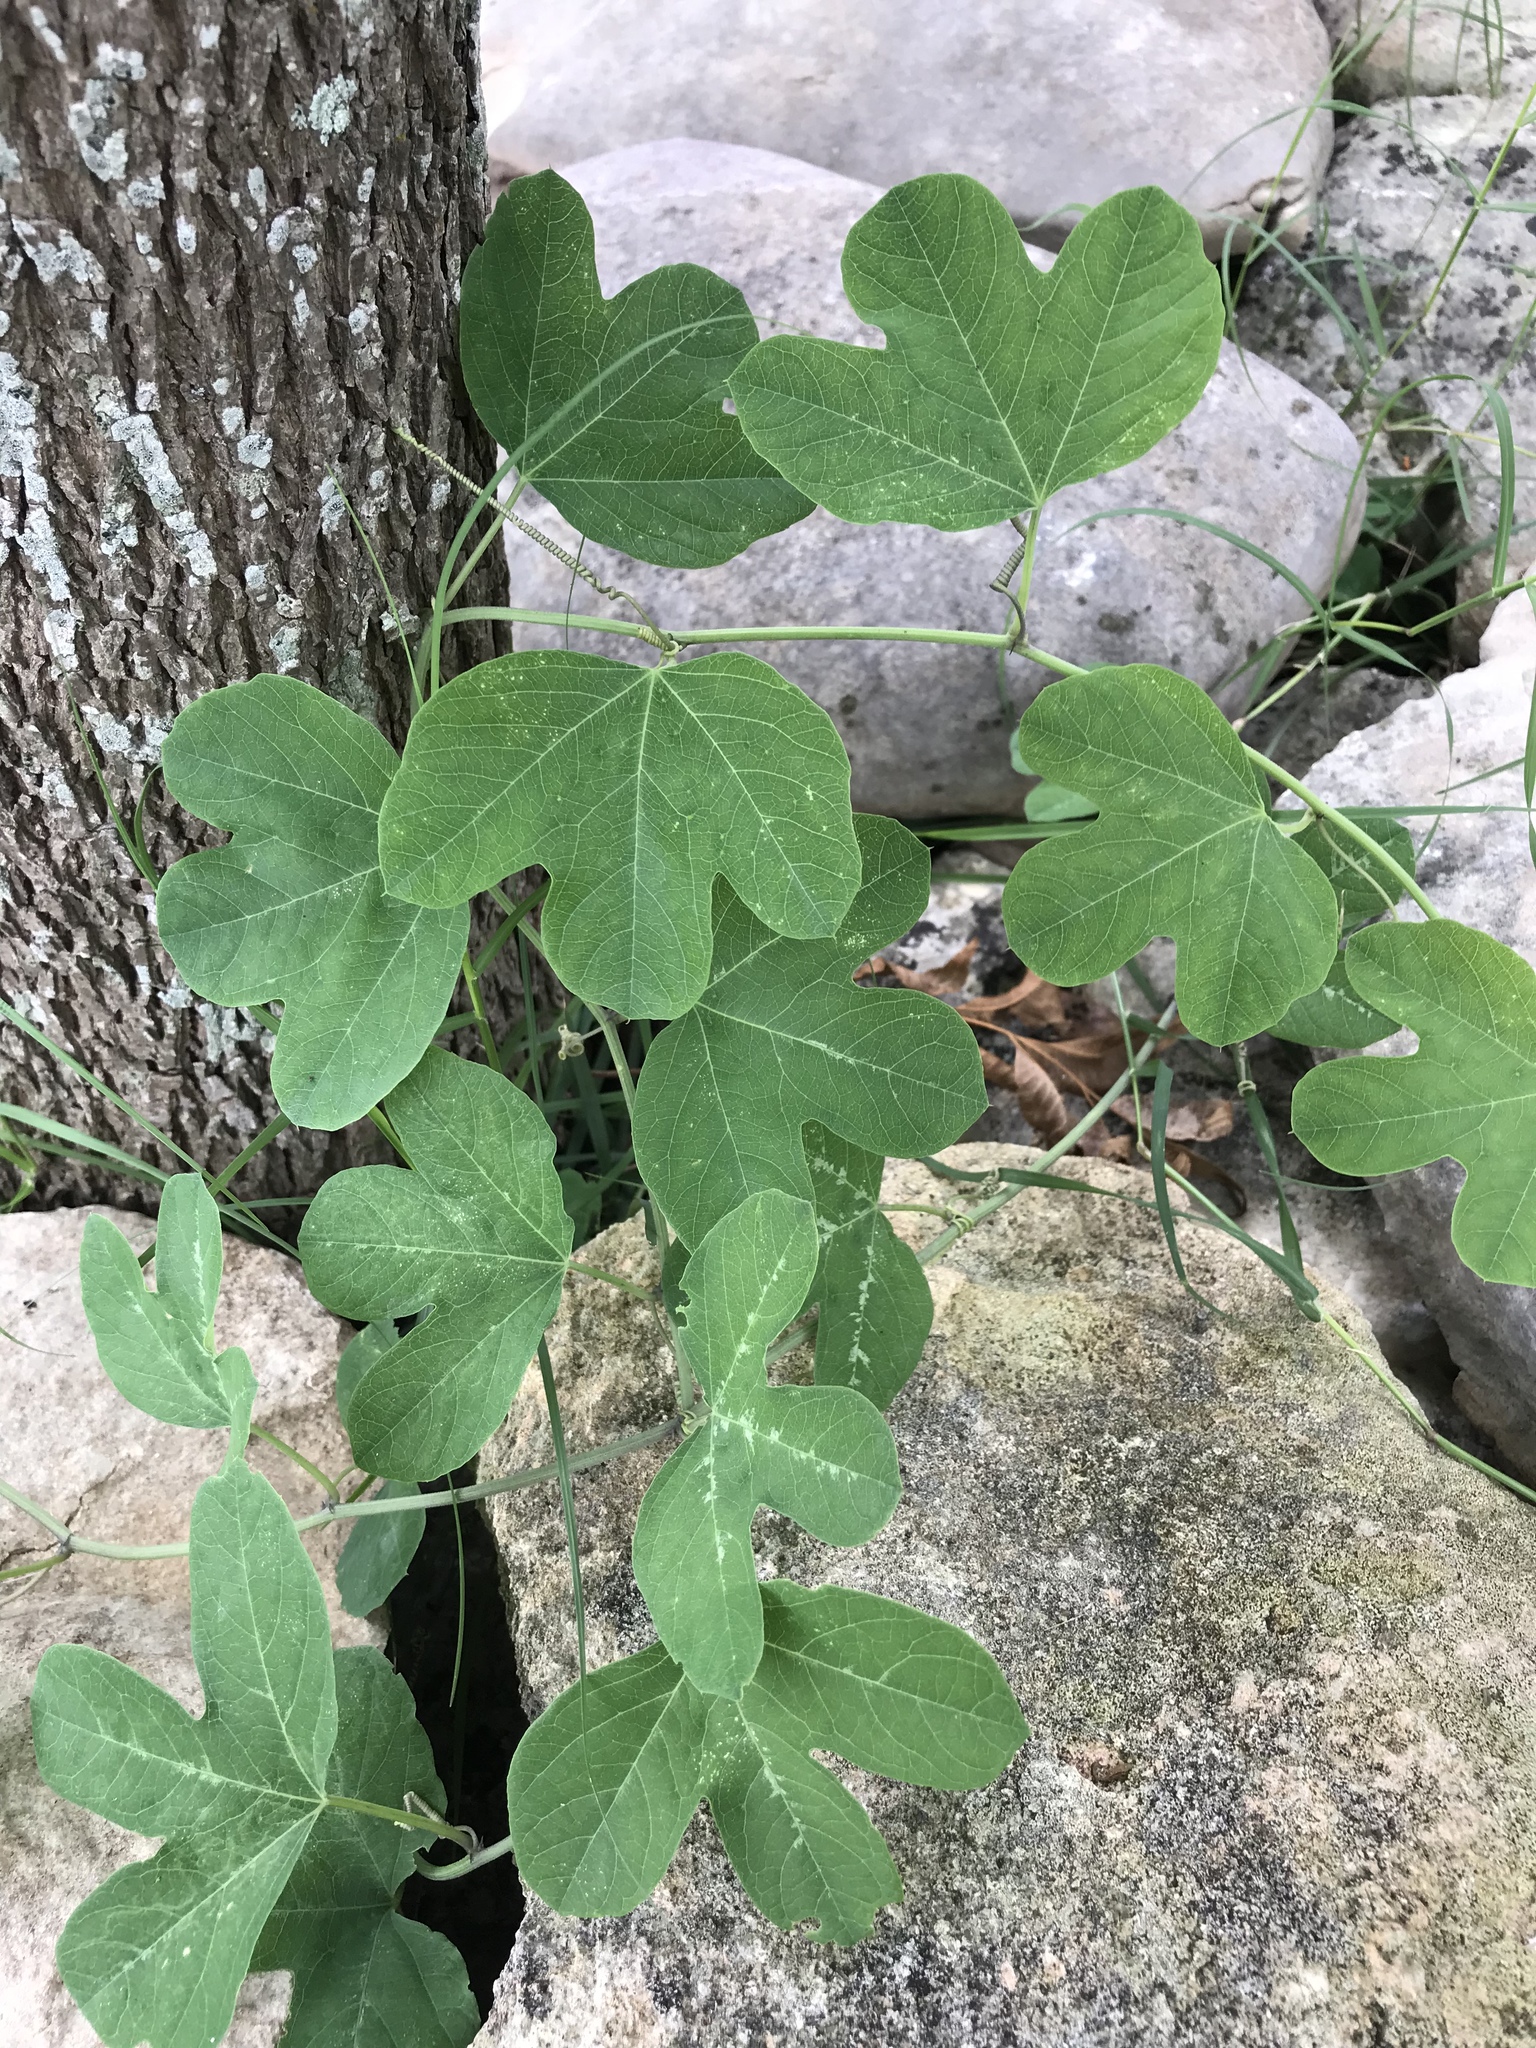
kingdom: Plantae
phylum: Tracheophyta
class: Magnoliopsida
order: Malpighiales
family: Passifloraceae
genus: Passiflora
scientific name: Passiflora affinis
